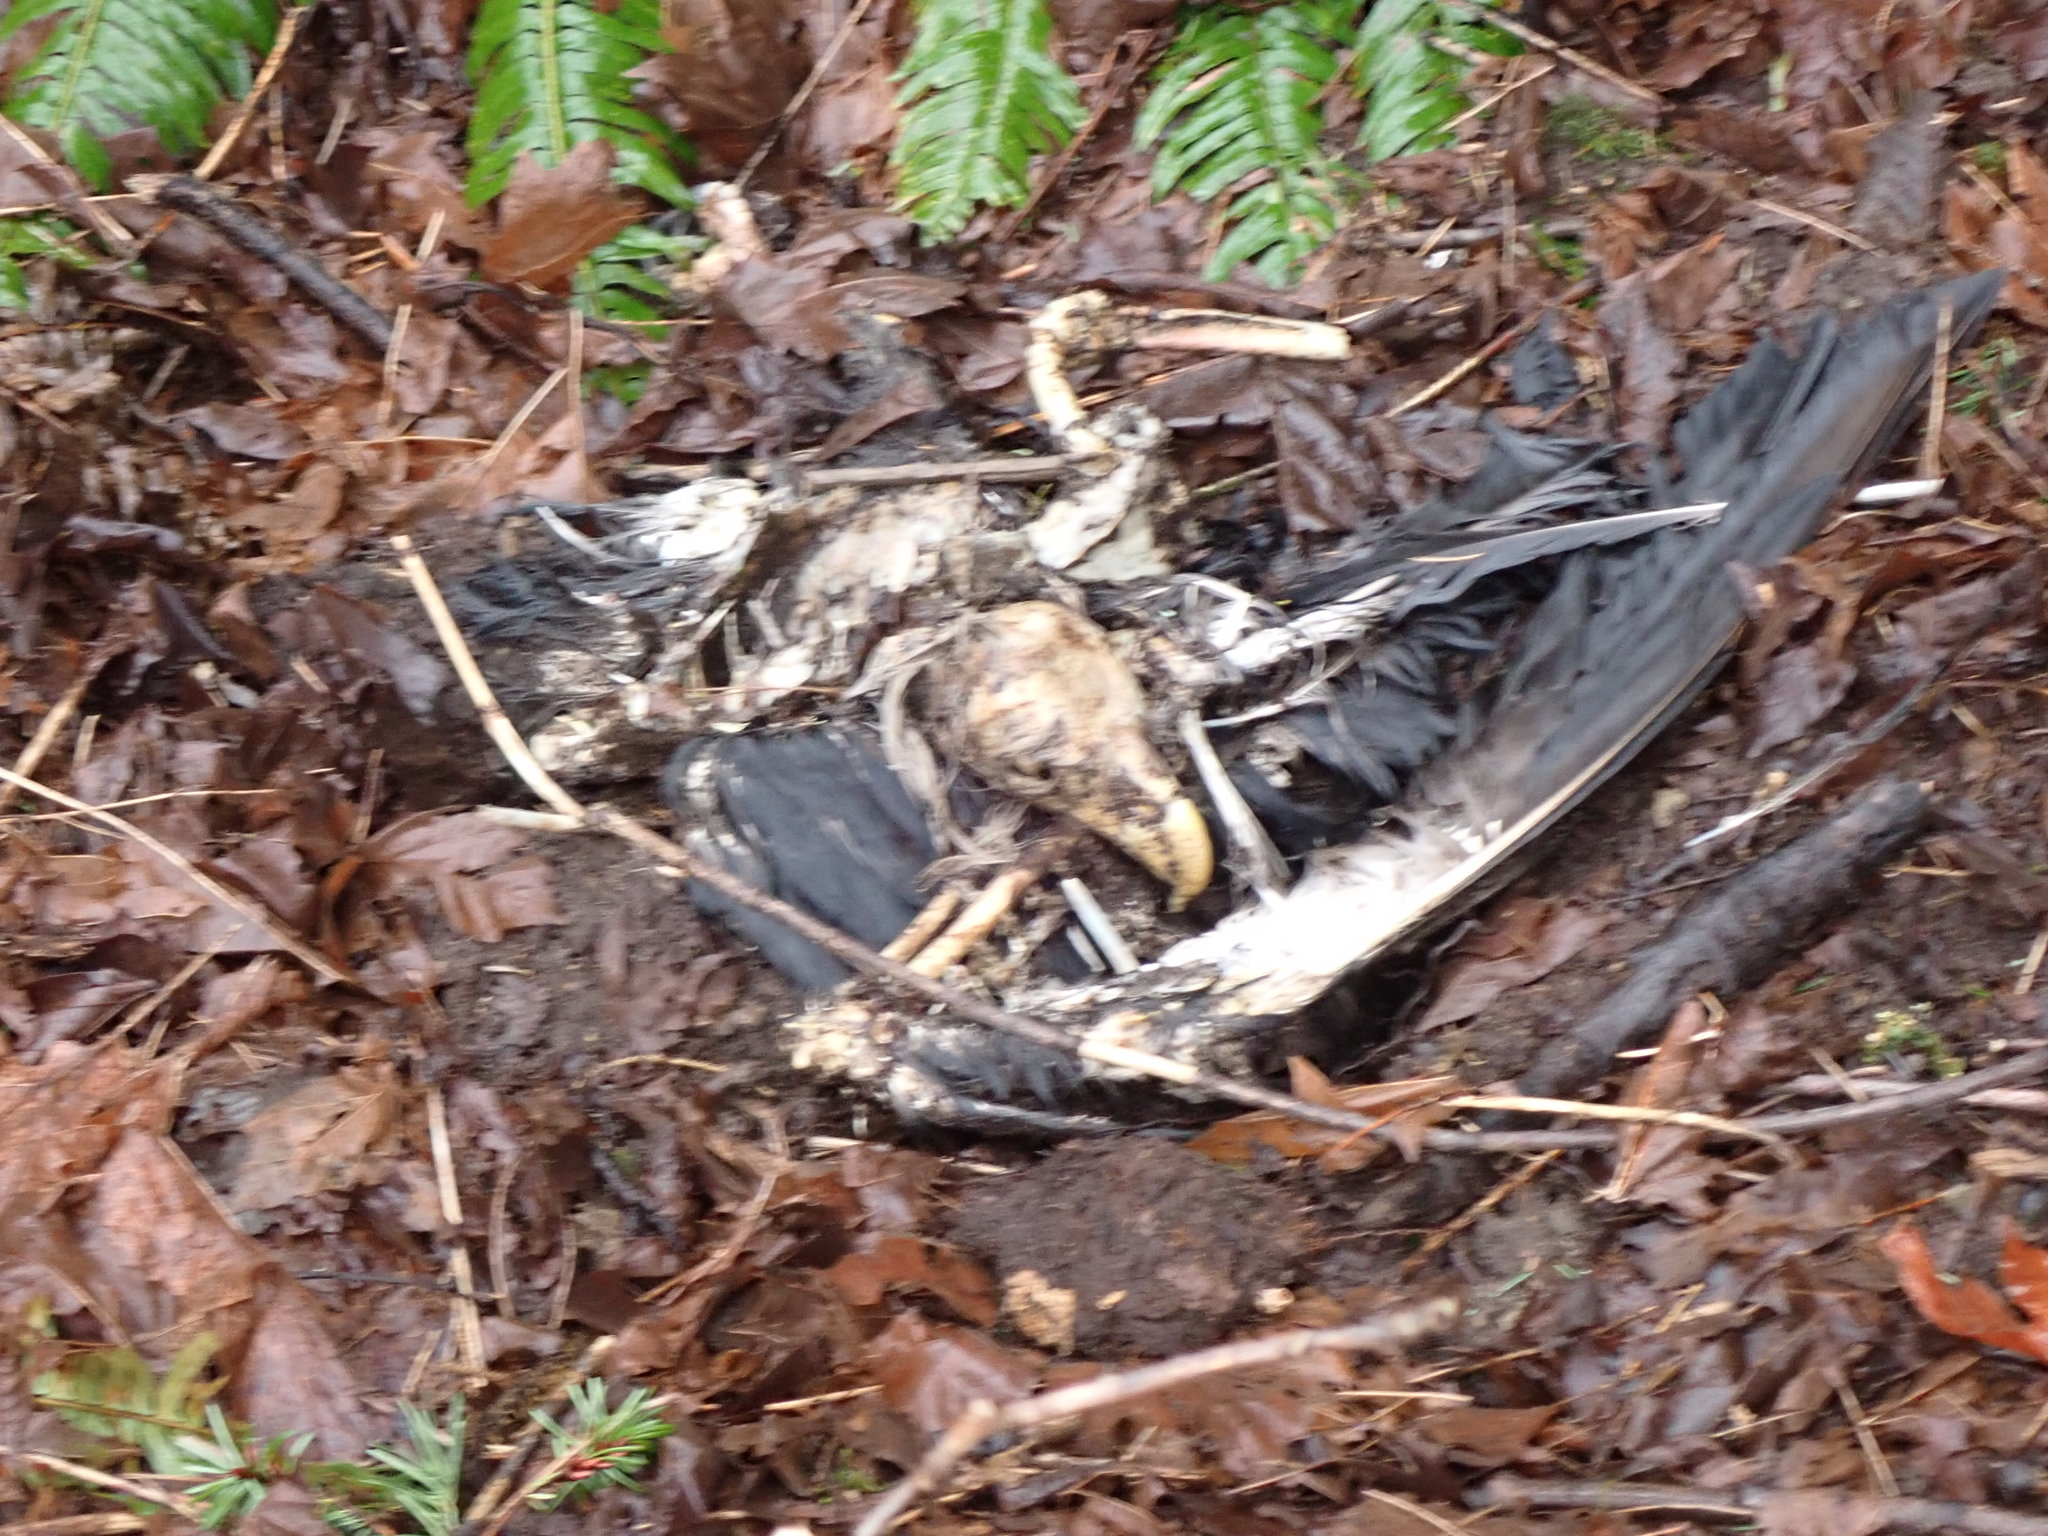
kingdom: Animalia
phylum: Chordata
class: Aves
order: Accipitriformes
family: Accipitridae
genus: Haliaeetus
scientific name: Haliaeetus leucocephalus
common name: Bald eagle
